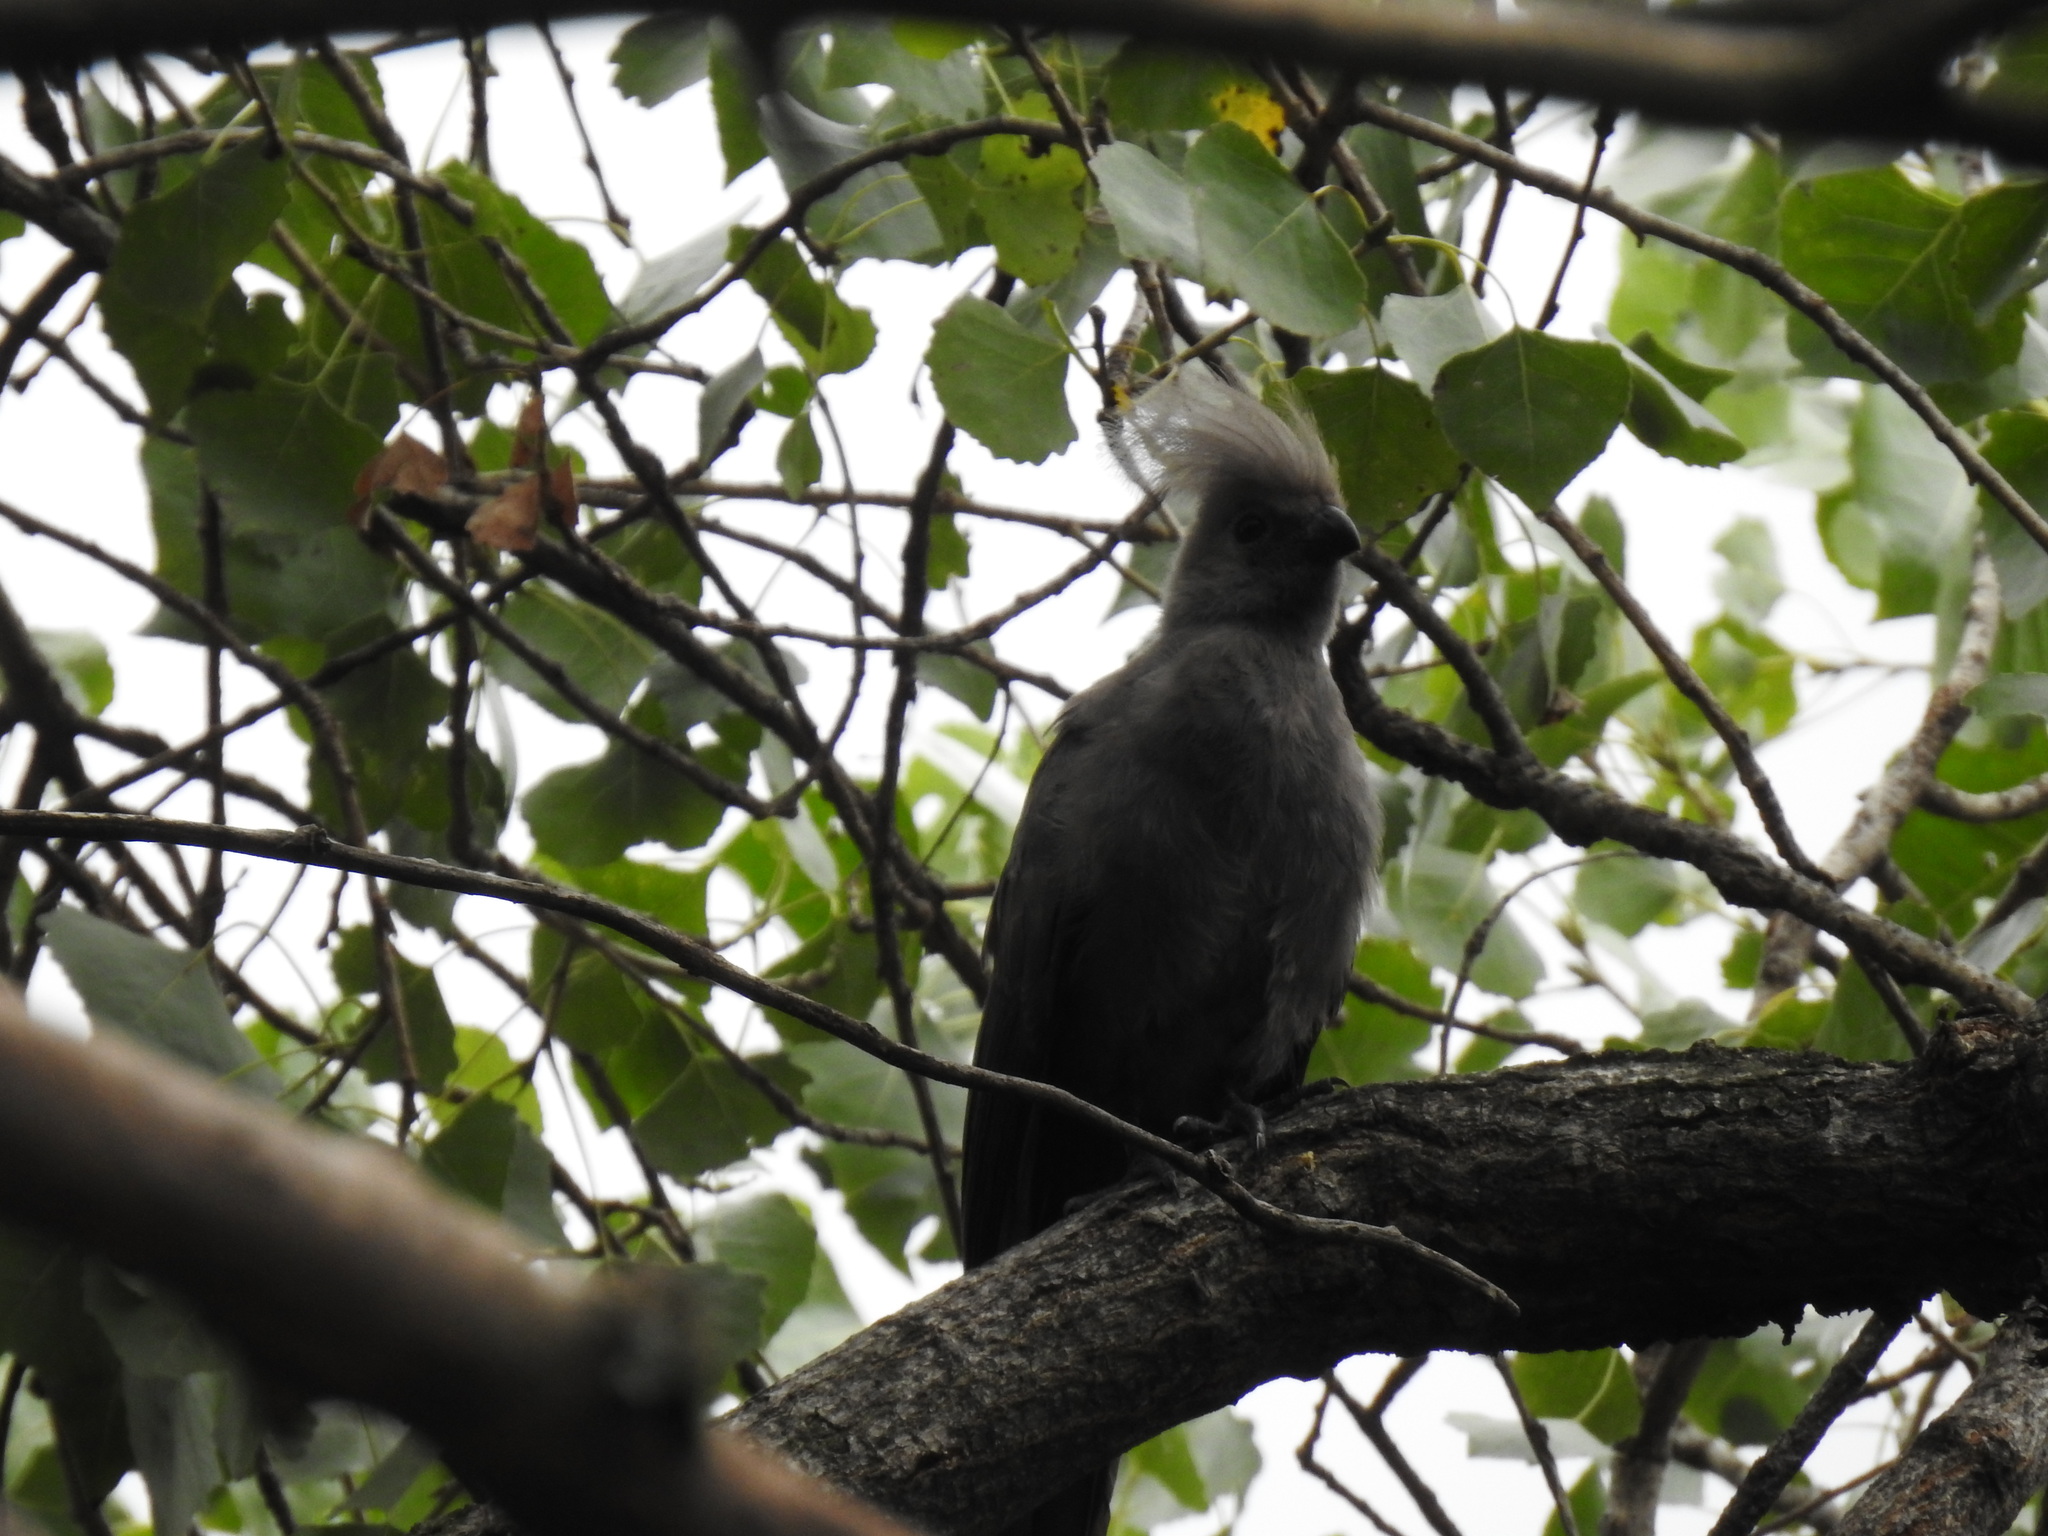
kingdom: Animalia
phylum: Chordata
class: Aves
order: Musophagiformes
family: Musophagidae
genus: Corythaixoides
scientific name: Corythaixoides concolor
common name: Grey go-away-bird
